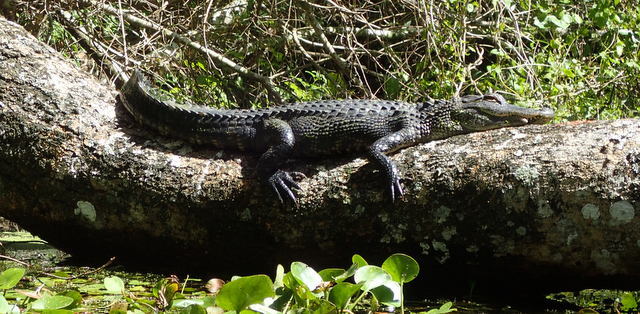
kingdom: Animalia
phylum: Chordata
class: Crocodylia
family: Alligatoridae
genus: Alligator
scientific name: Alligator mississippiensis
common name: American alligator
